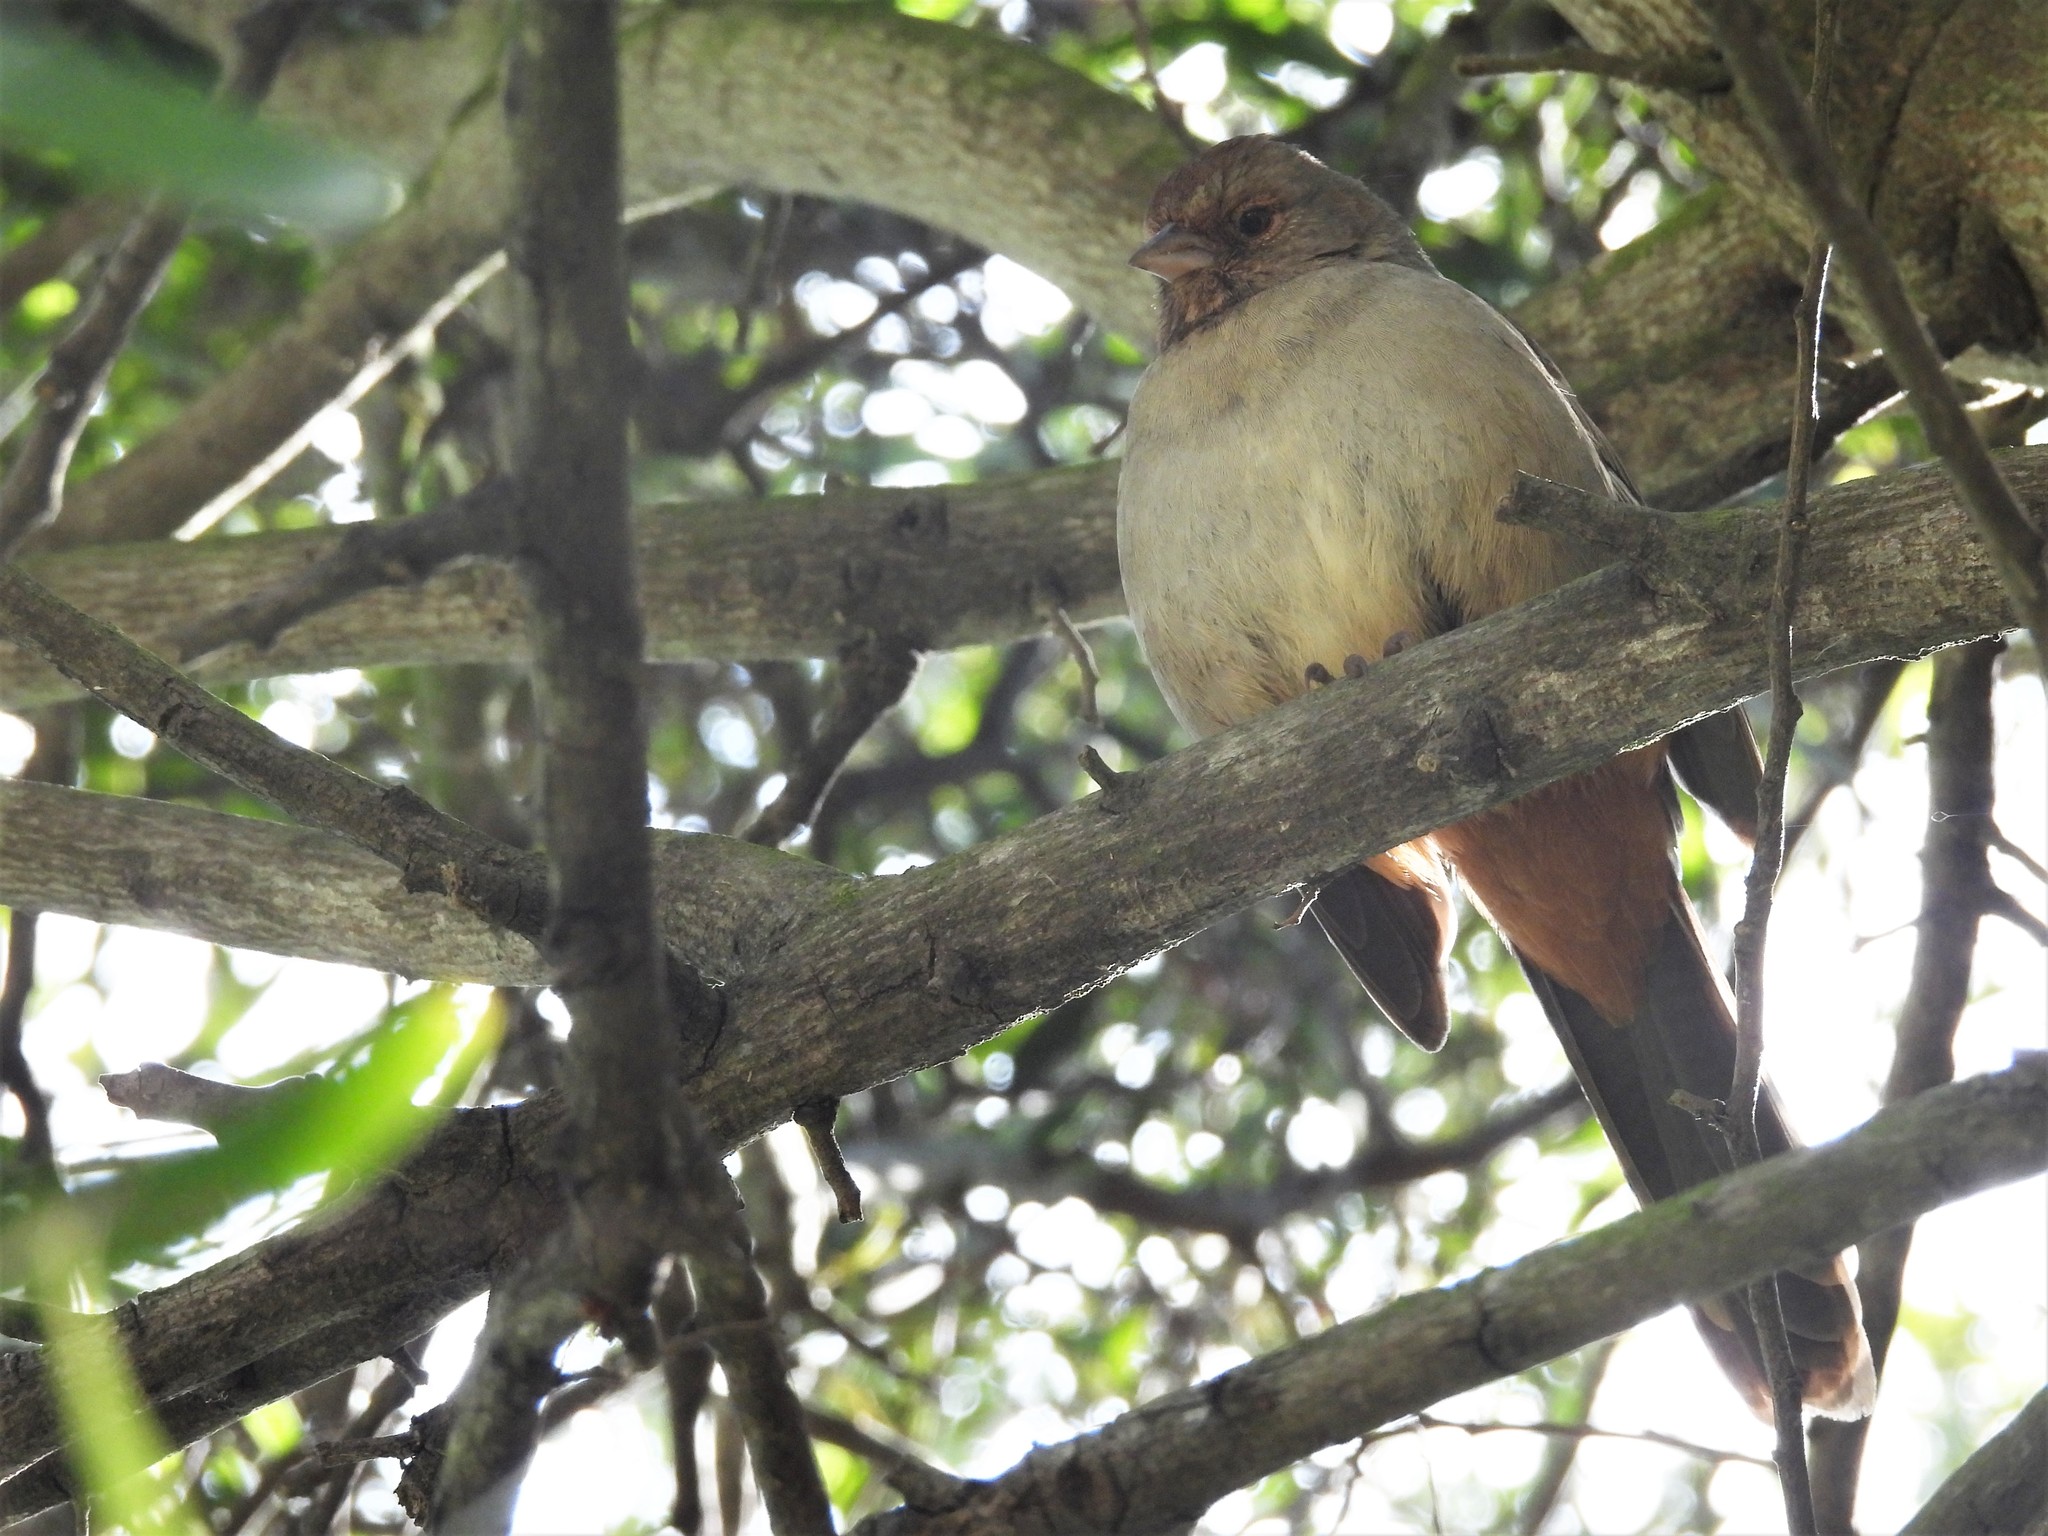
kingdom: Animalia
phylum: Chordata
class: Aves
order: Passeriformes
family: Passerellidae
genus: Melozone
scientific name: Melozone crissalis
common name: California towhee
